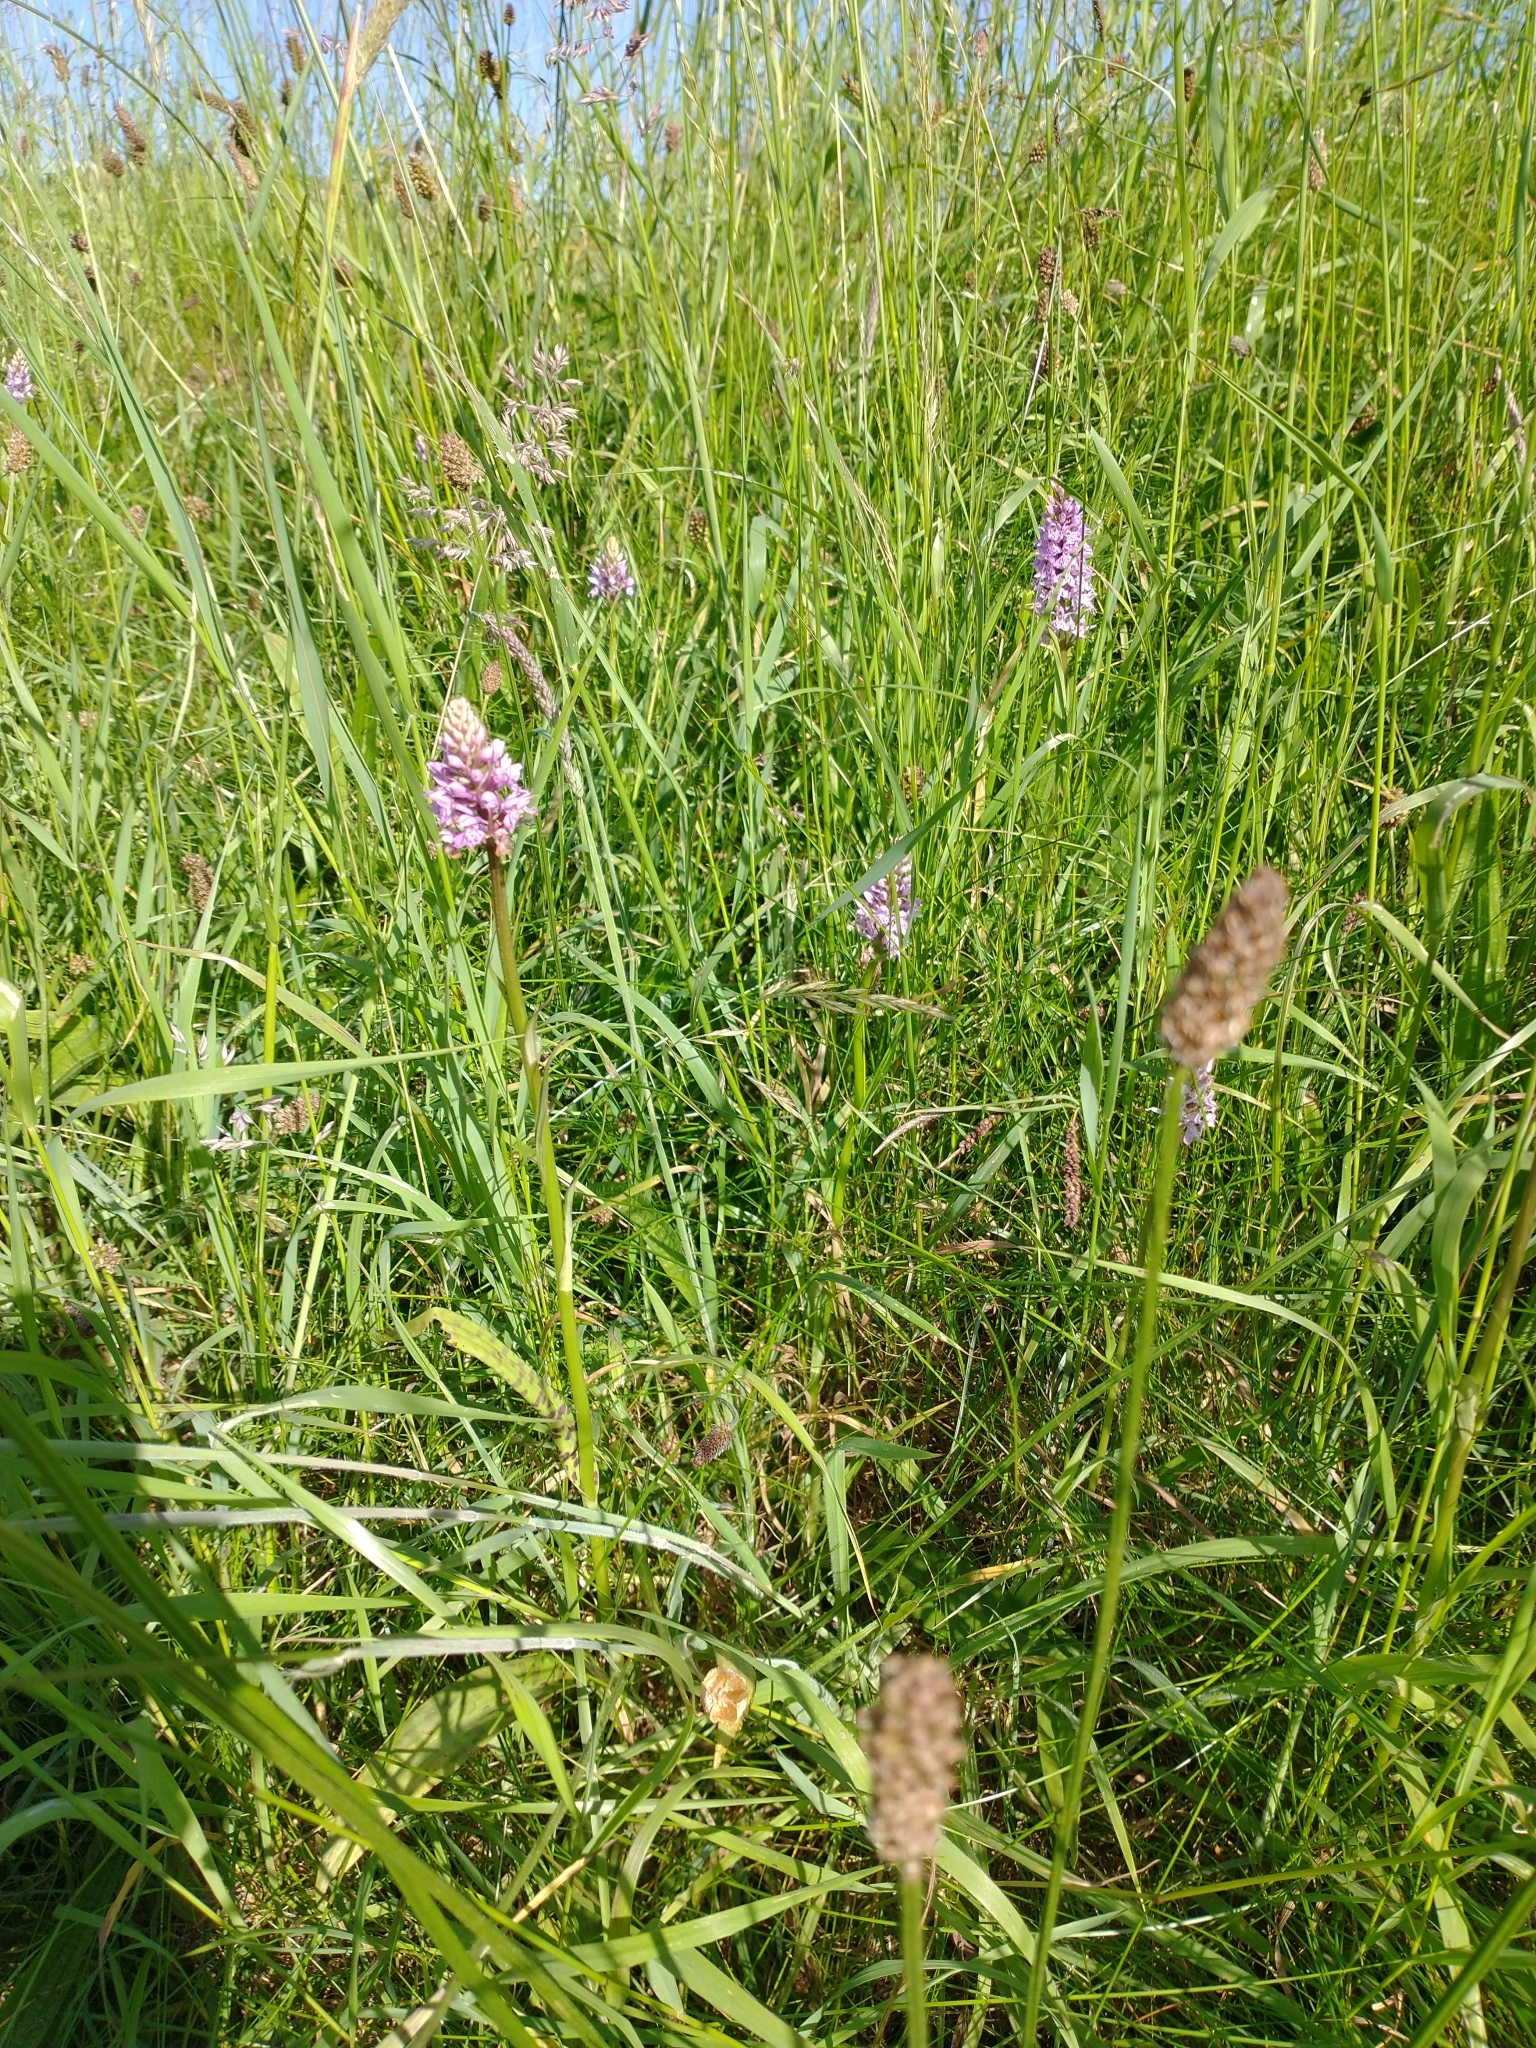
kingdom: Plantae
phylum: Tracheophyta
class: Liliopsida
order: Asparagales
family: Orchidaceae
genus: Dactylorhiza
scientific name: Dactylorhiza maculata
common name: Heath spotted-orchid
